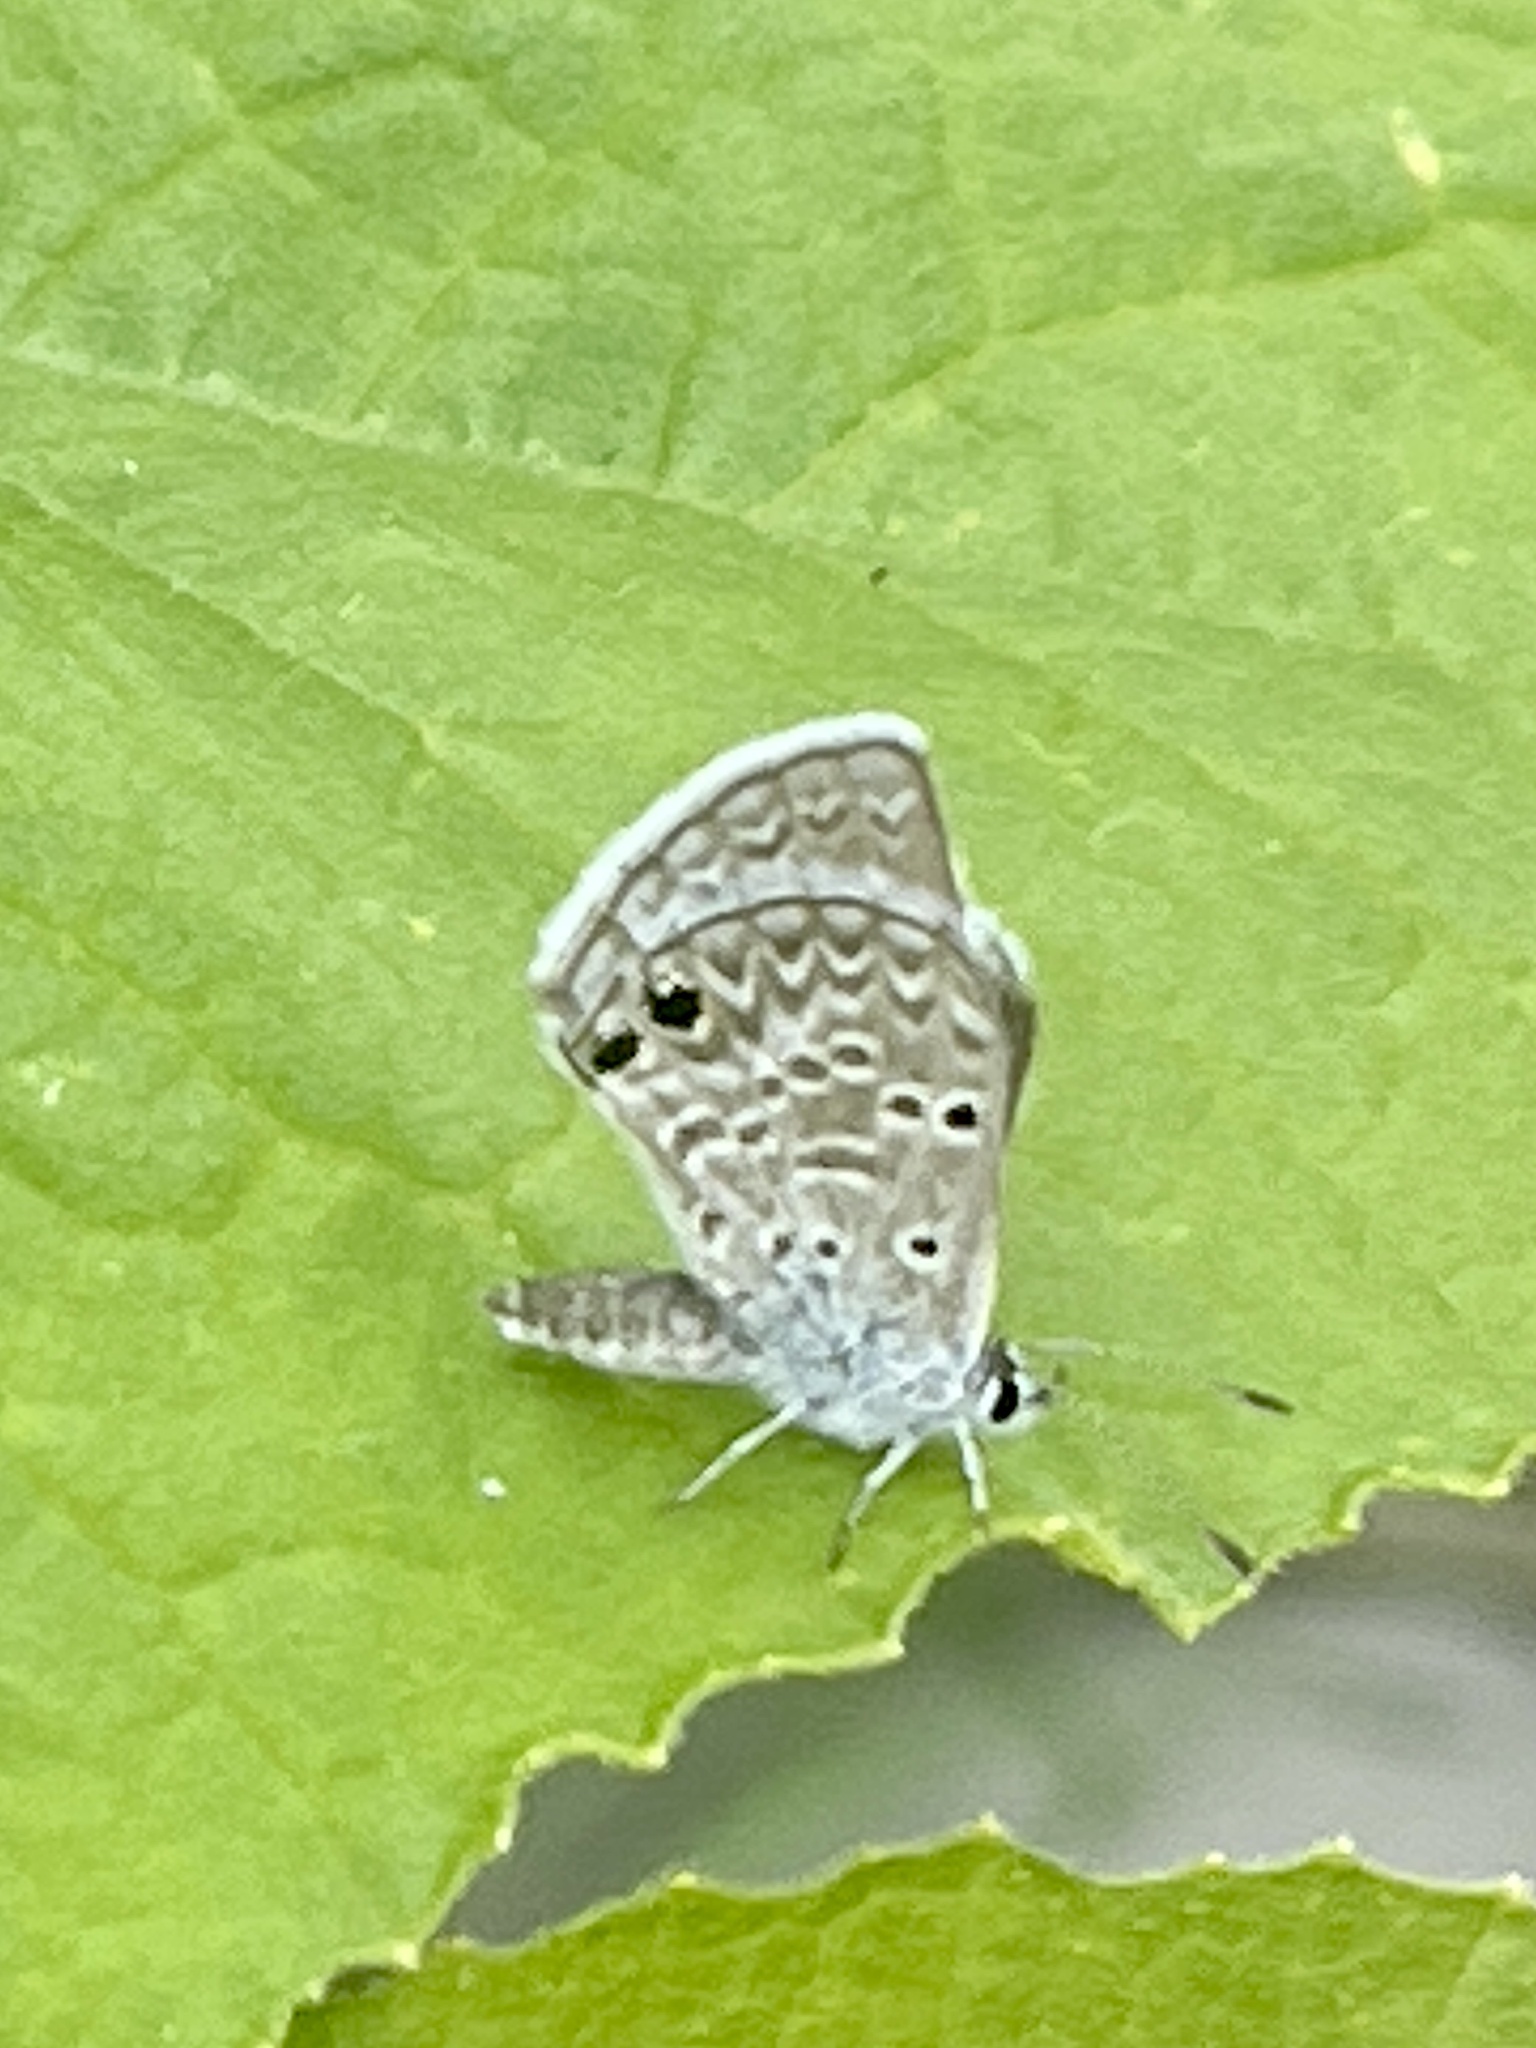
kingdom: Animalia
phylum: Arthropoda
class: Insecta
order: Lepidoptera
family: Lycaenidae
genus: Echinargus
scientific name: Echinargus isola
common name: Reakirt's blue
